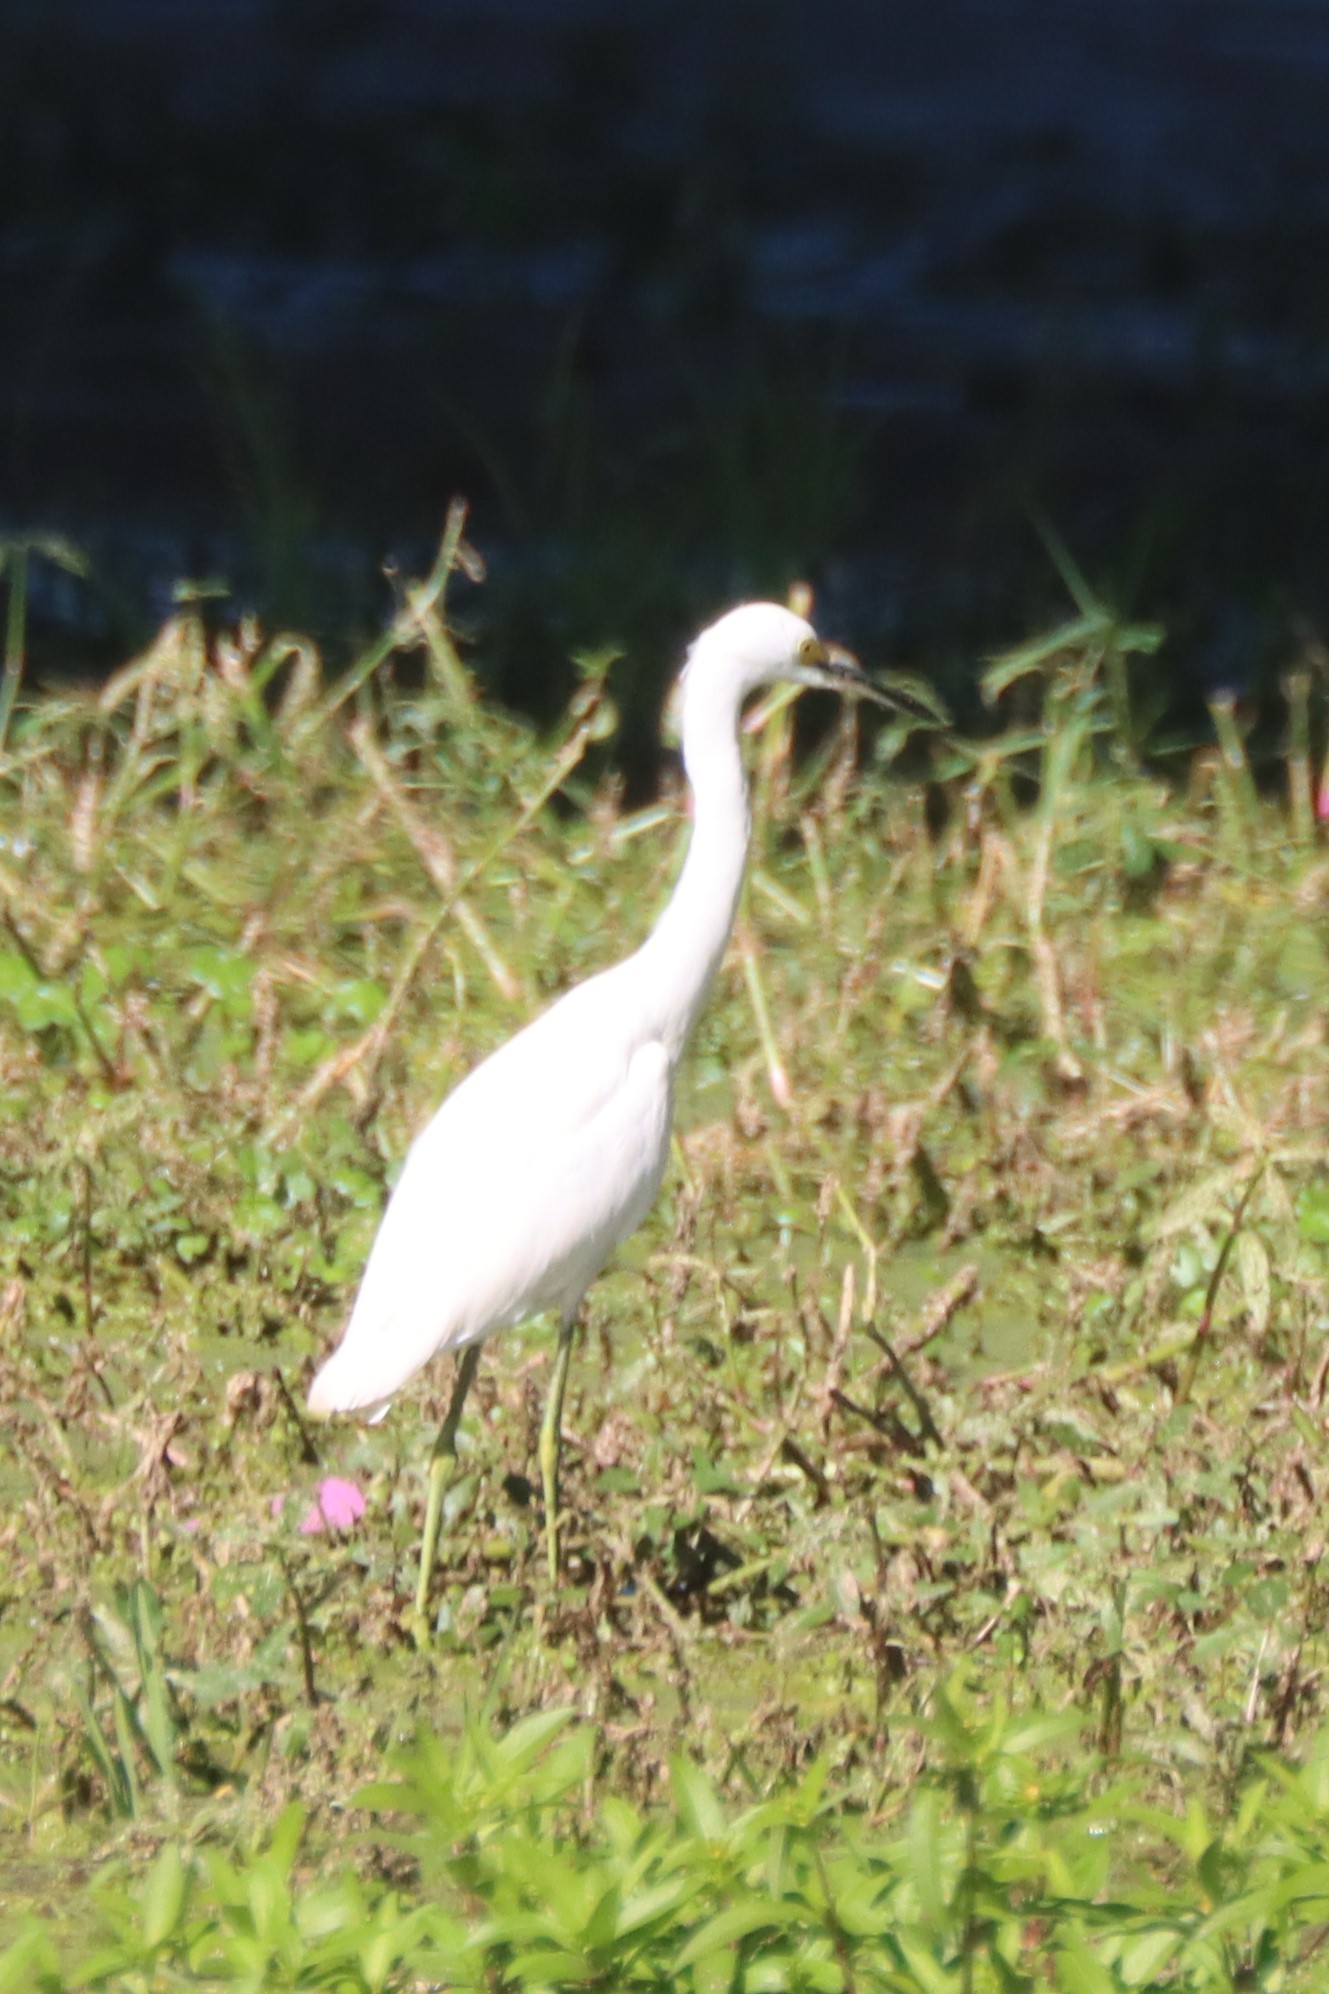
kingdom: Animalia
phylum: Chordata
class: Aves
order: Pelecaniformes
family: Ardeidae
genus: Egretta
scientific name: Egretta thula
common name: Snowy egret
